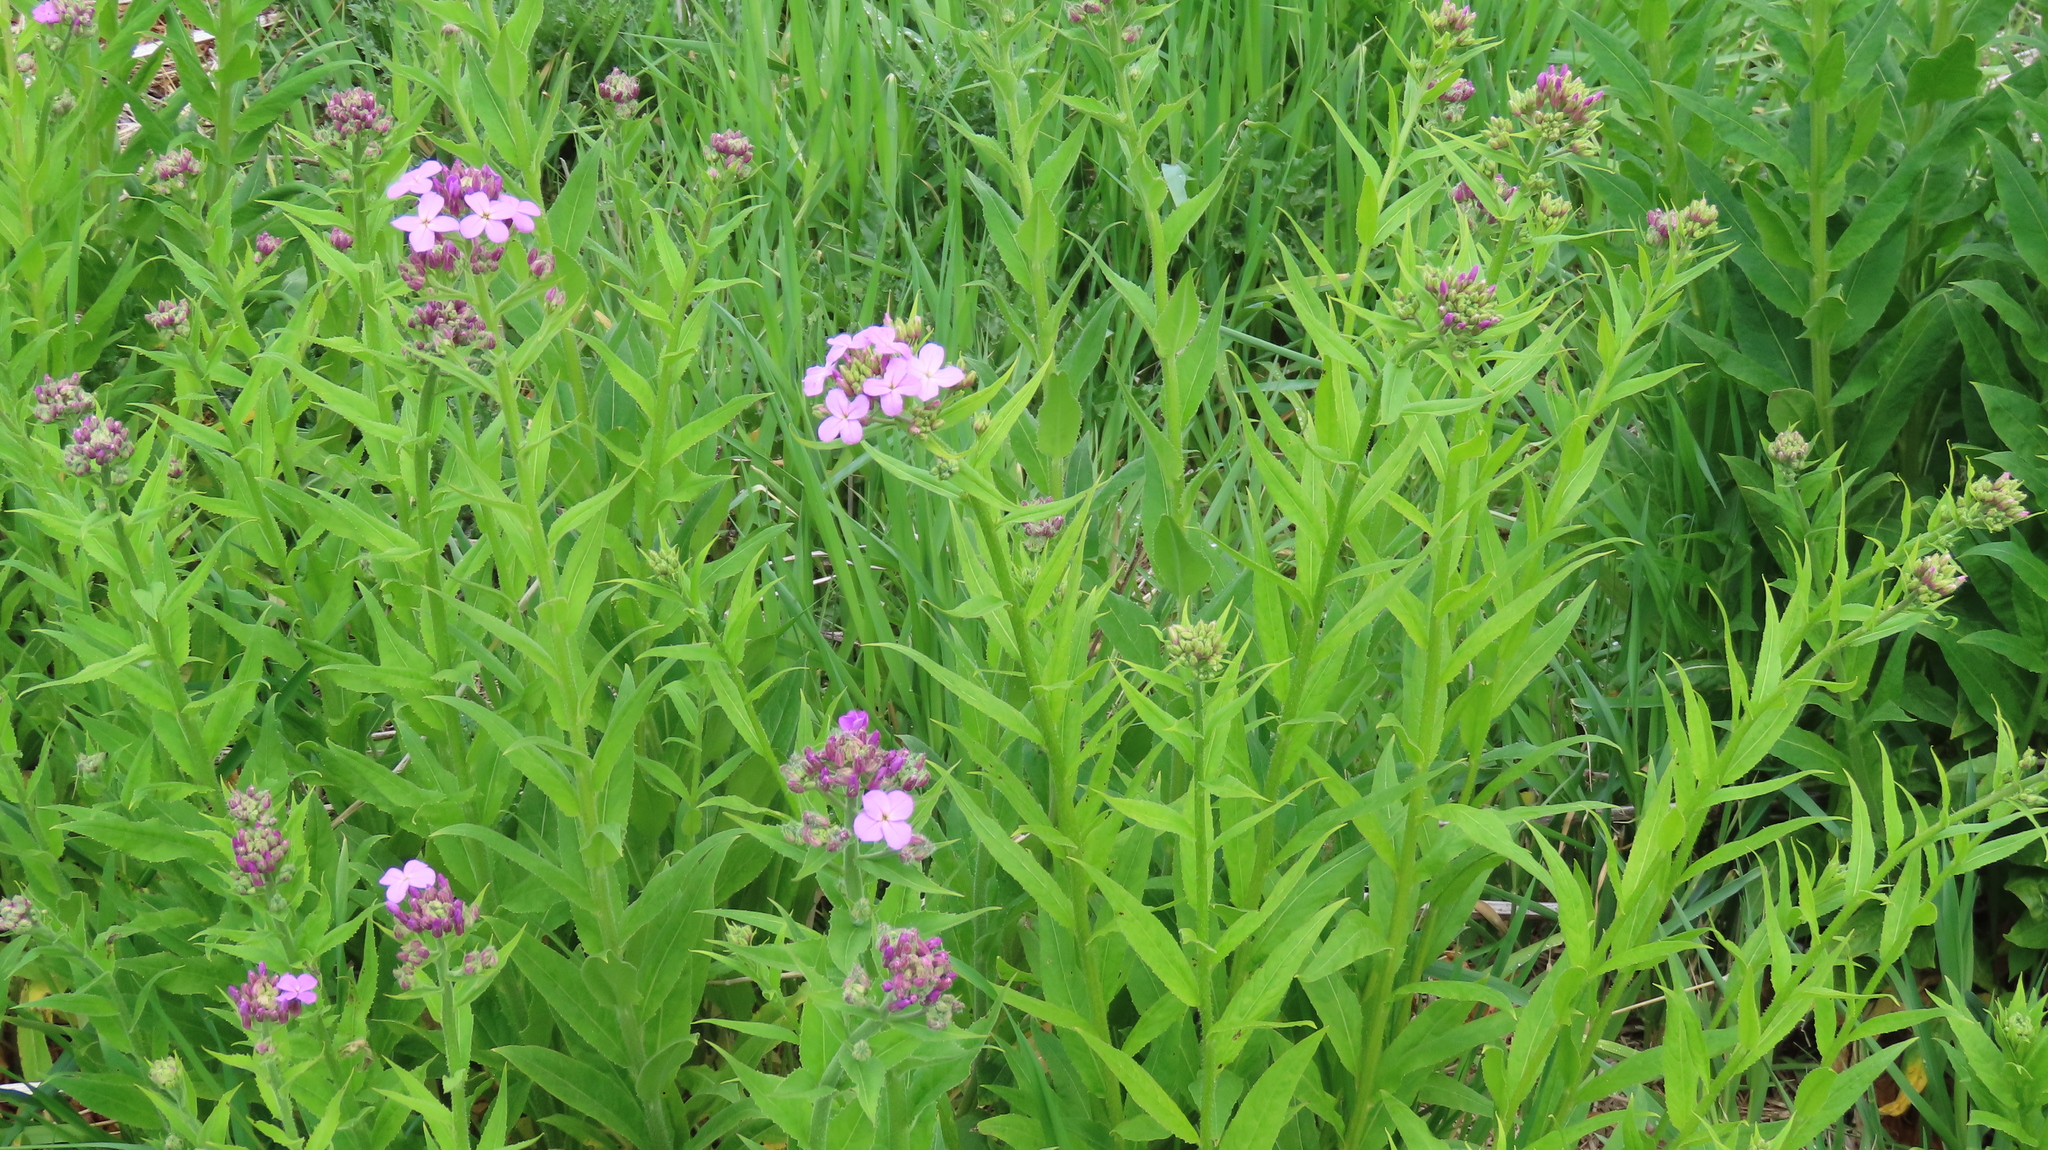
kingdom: Plantae
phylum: Tracheophyta
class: Magnoliopsida
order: Brassicales
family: Brassicaceae
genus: Hesperis
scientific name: Hesperis matronalis
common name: Dame's-violet
